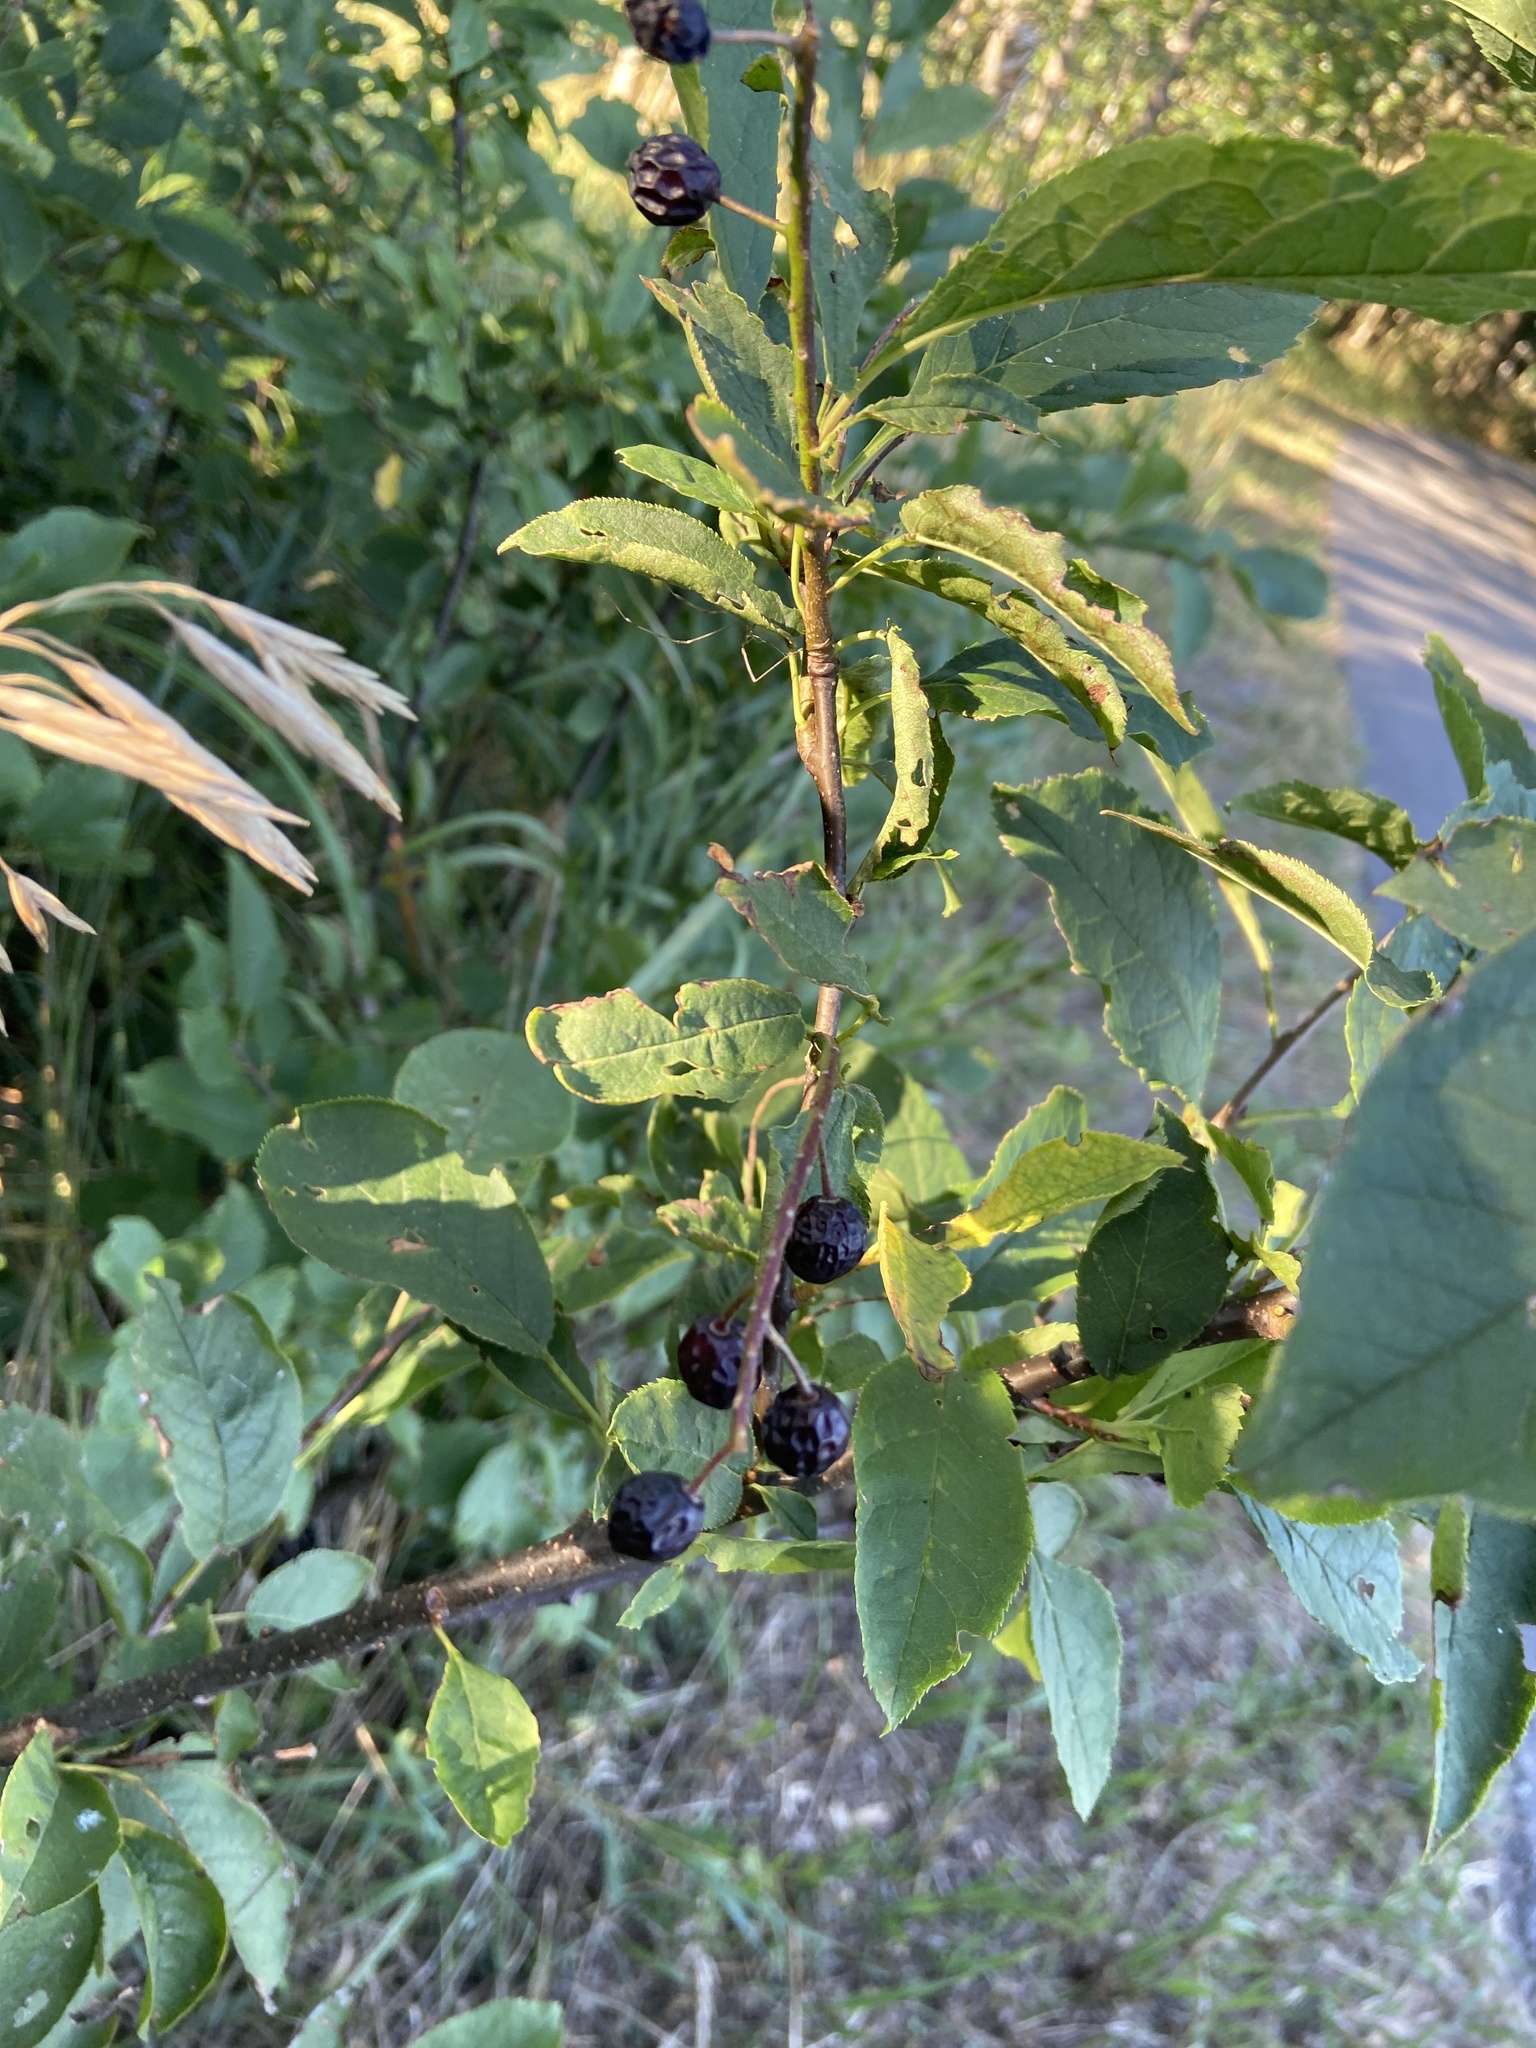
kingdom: Plantae
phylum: Tracheophyta
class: Magnoliopsida
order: Rosales
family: Rosaceae
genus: Prunus
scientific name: Prunus padus
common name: Bird cherry
